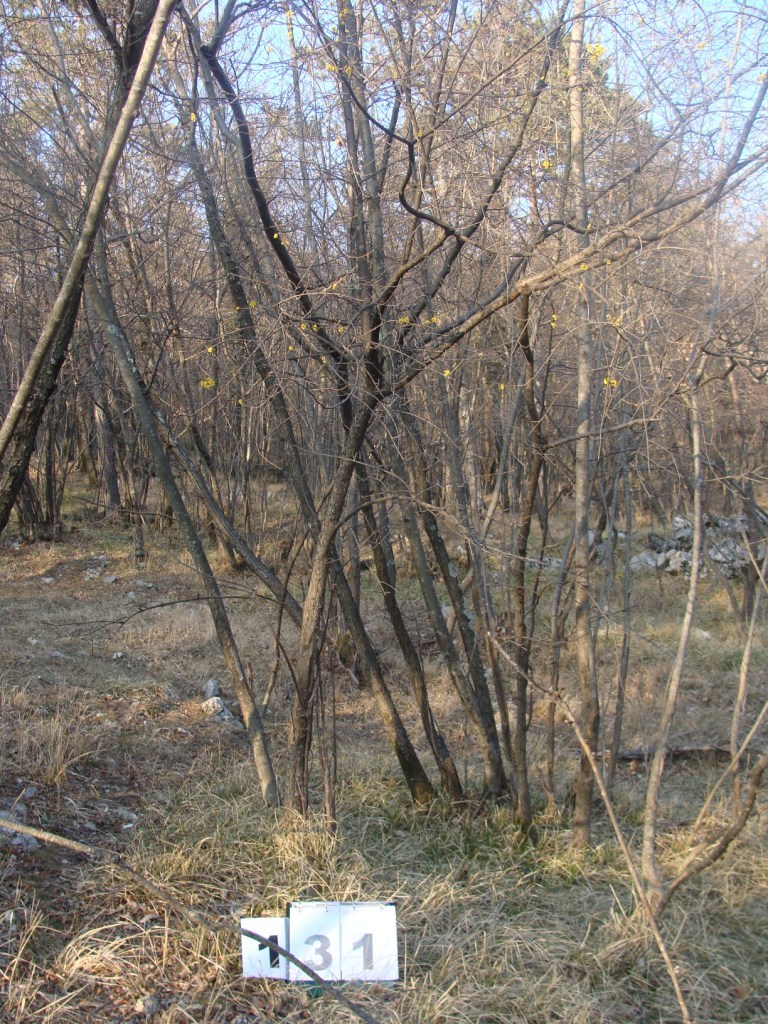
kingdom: Plantae
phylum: Tracheophyta
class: Magnoliopsida
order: Cornales
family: Cornaceae
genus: Cornus
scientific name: Cornus mas
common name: Cornelian-cherry
